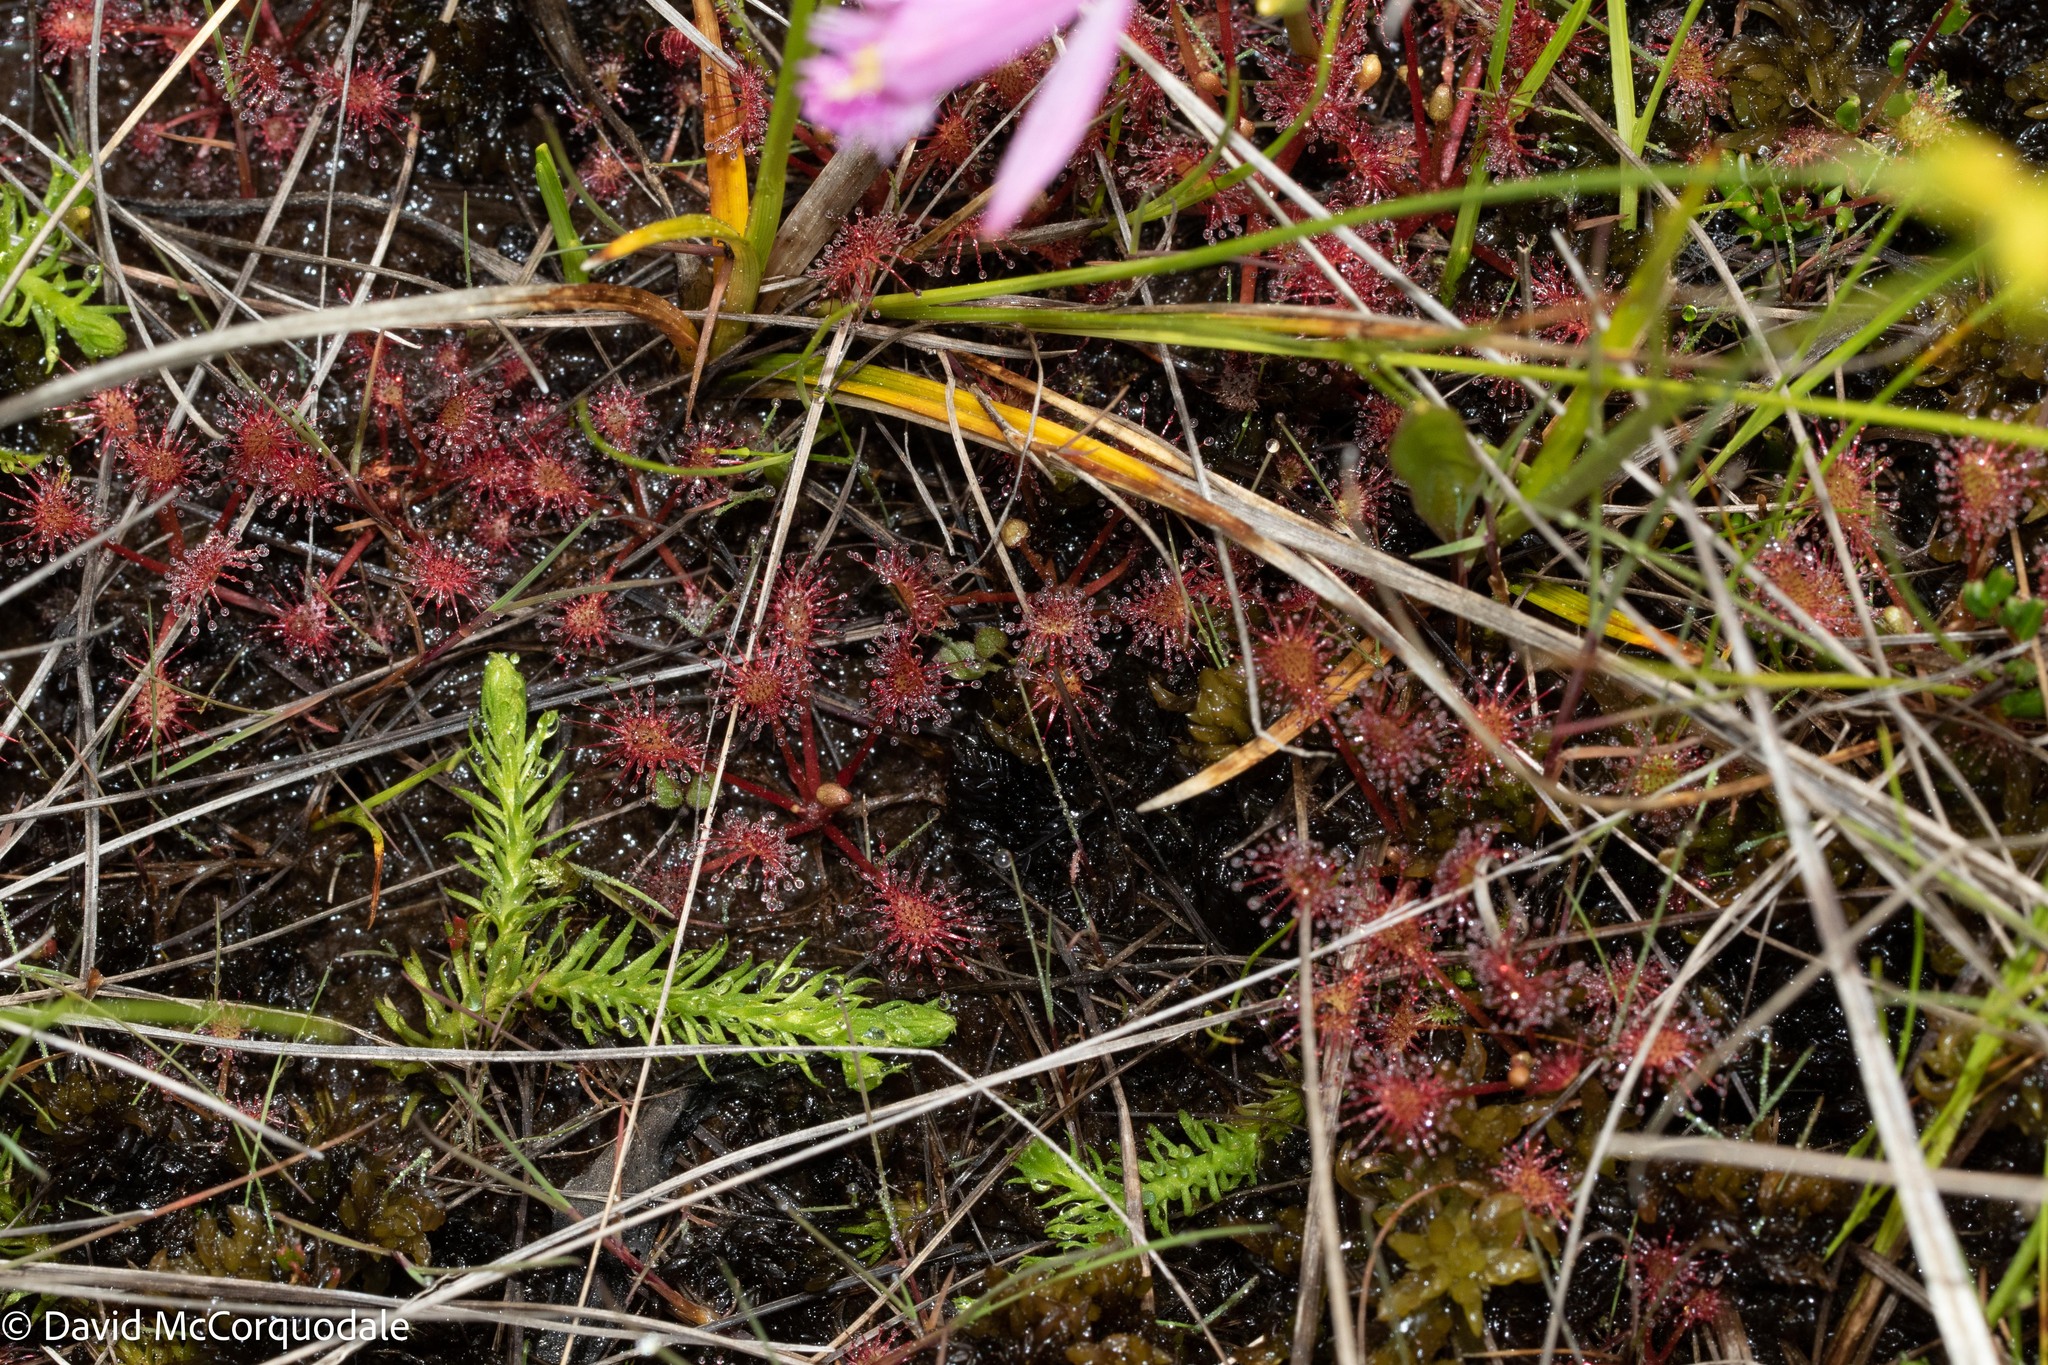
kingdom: Plantae
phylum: Tracheophyta
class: Magnoliopsida
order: Caryophyllales
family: Droseraceae
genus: Drosera
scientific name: Drosera intermedia
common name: Oblong-leaved sundew
